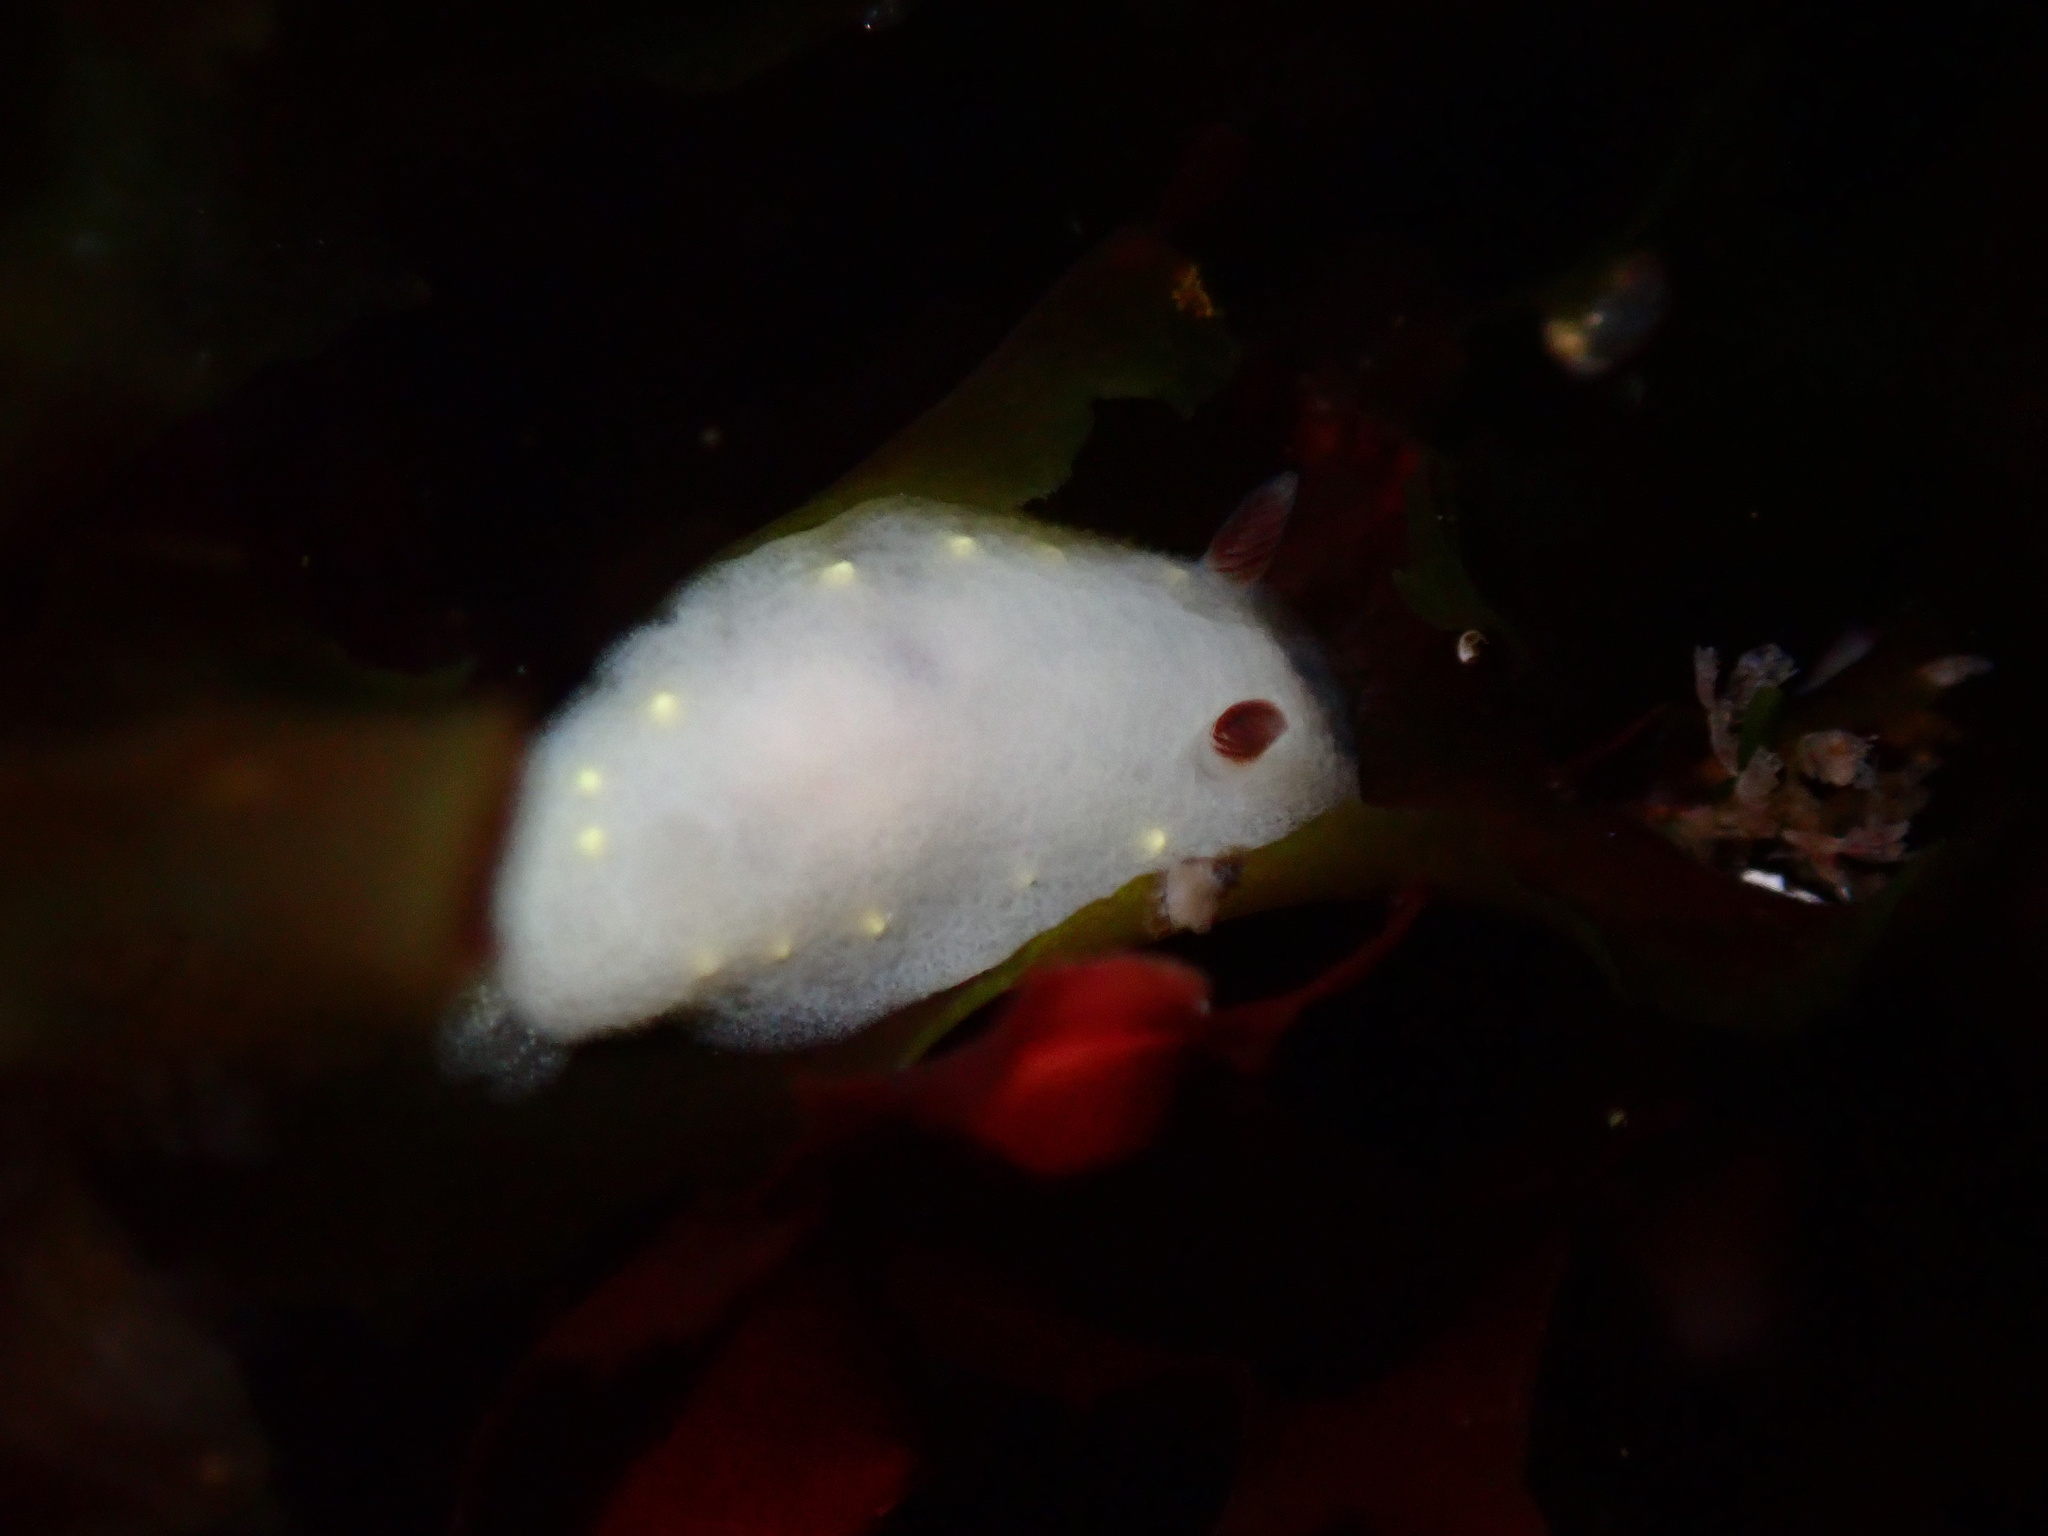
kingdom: Animalia
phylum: Mollusca
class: Gastropoda
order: Nudibranchia
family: Cadlinidae
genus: Cadlina
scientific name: Cadlina flavomaculata
